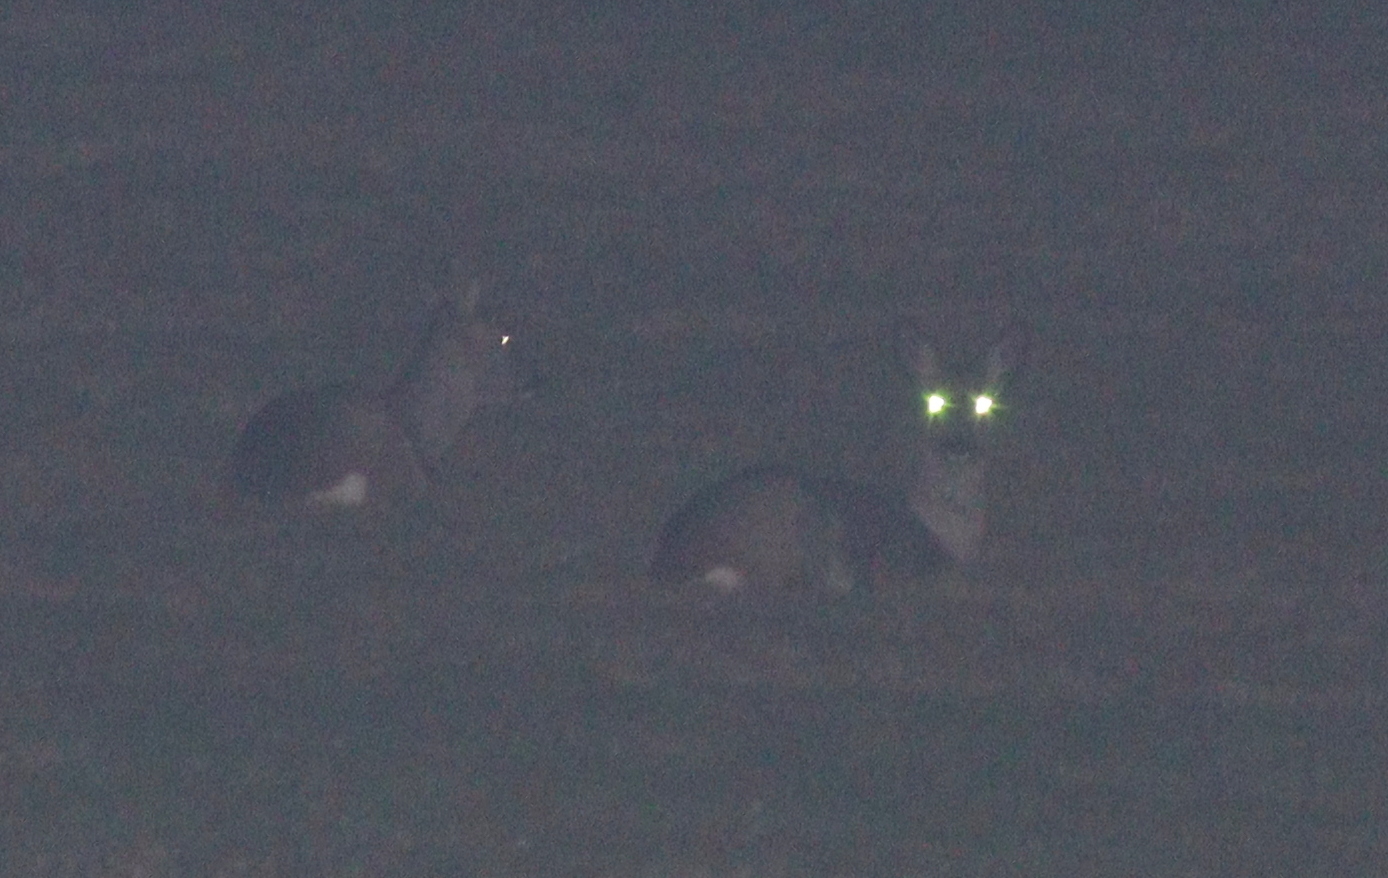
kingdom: Animalia
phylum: Chordata
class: Mammalia
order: Artiodactyla
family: Cervidae
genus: Capreolus
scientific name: Capreolus capreolus
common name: Western roe deer
